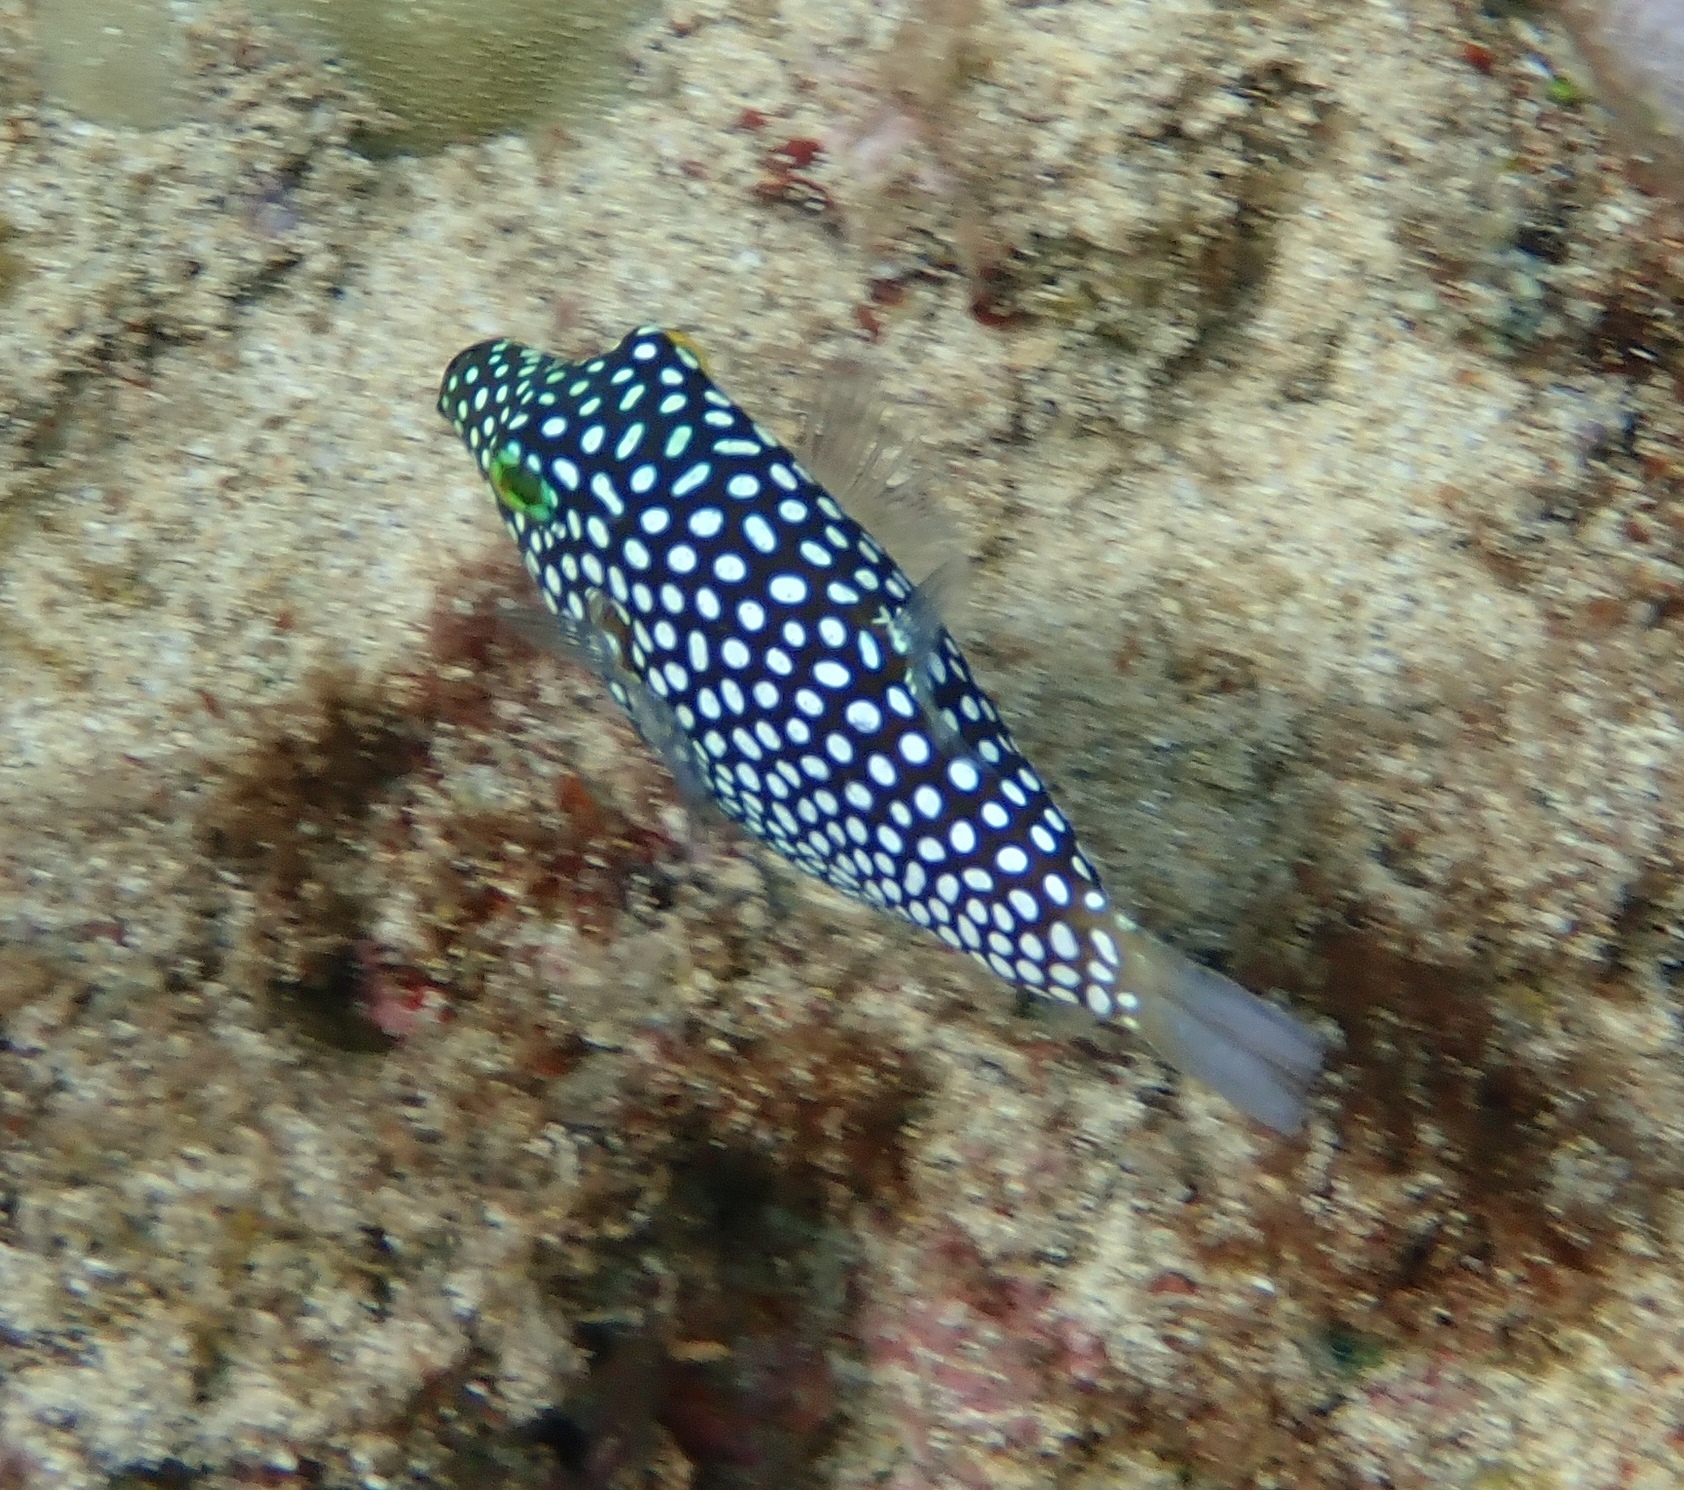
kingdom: Animalia
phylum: Chordata
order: Tetraodontiformes
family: Tetraodontidae
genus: Canthigaster
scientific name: Canthigaster jactator
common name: Hawaiian whitespotted toby
